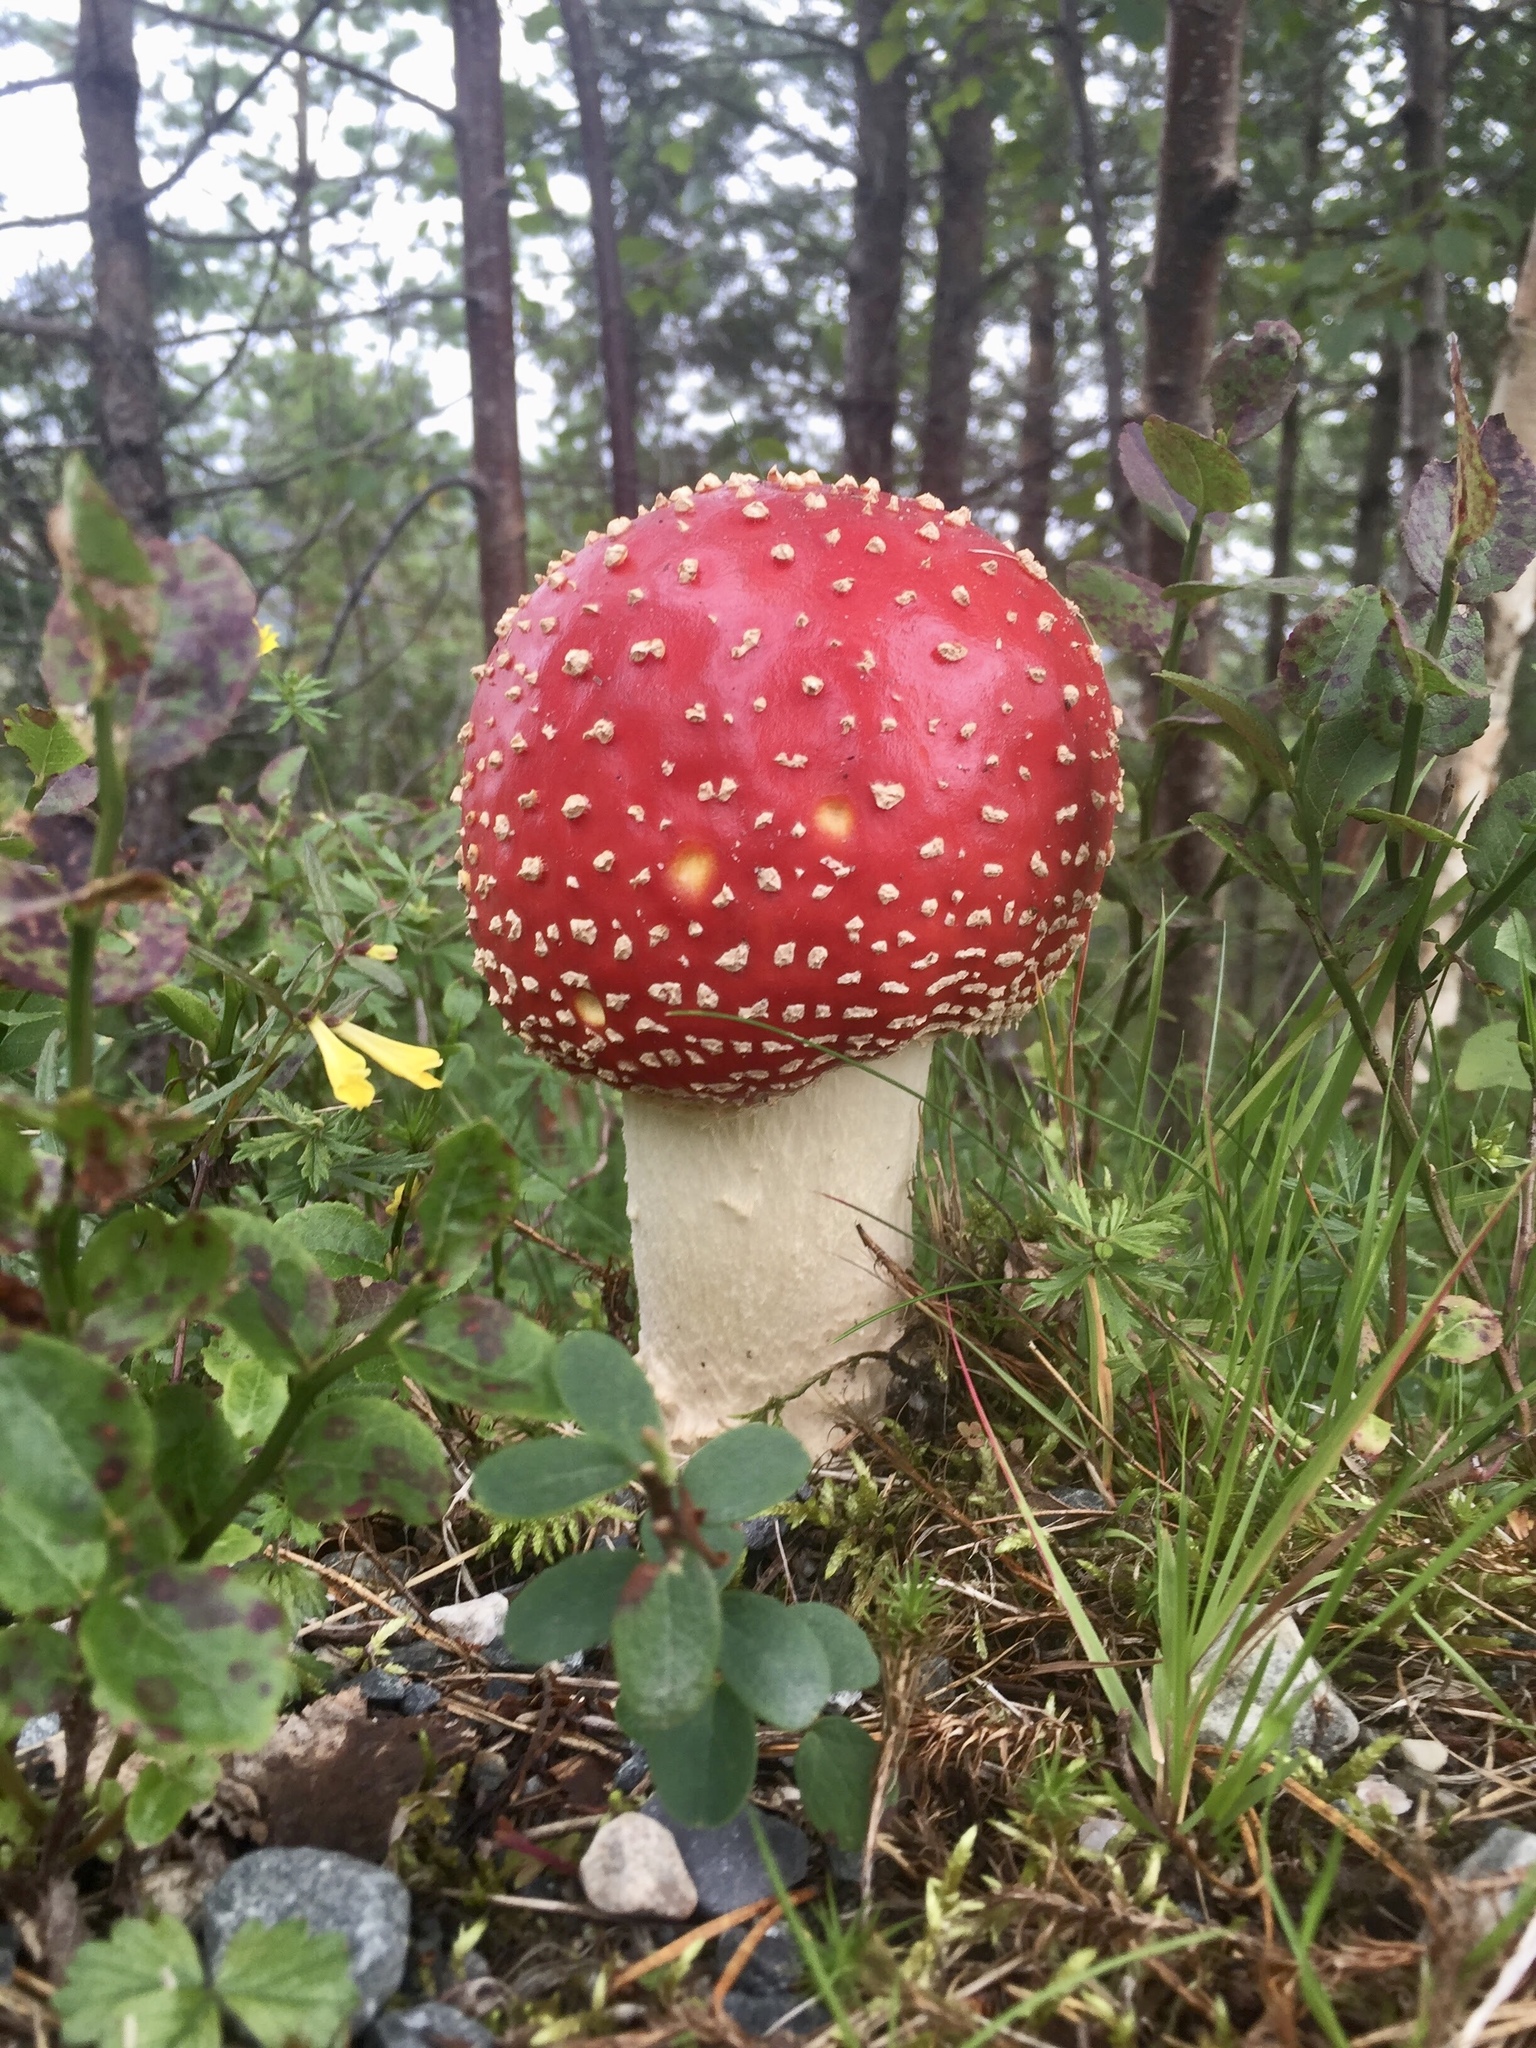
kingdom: Fungi
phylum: Basidiomycota
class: Agaricomycetes
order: Agaricales
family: Amanitaceae
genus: Amanita
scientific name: Amanita muscaria
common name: Fly agaric
